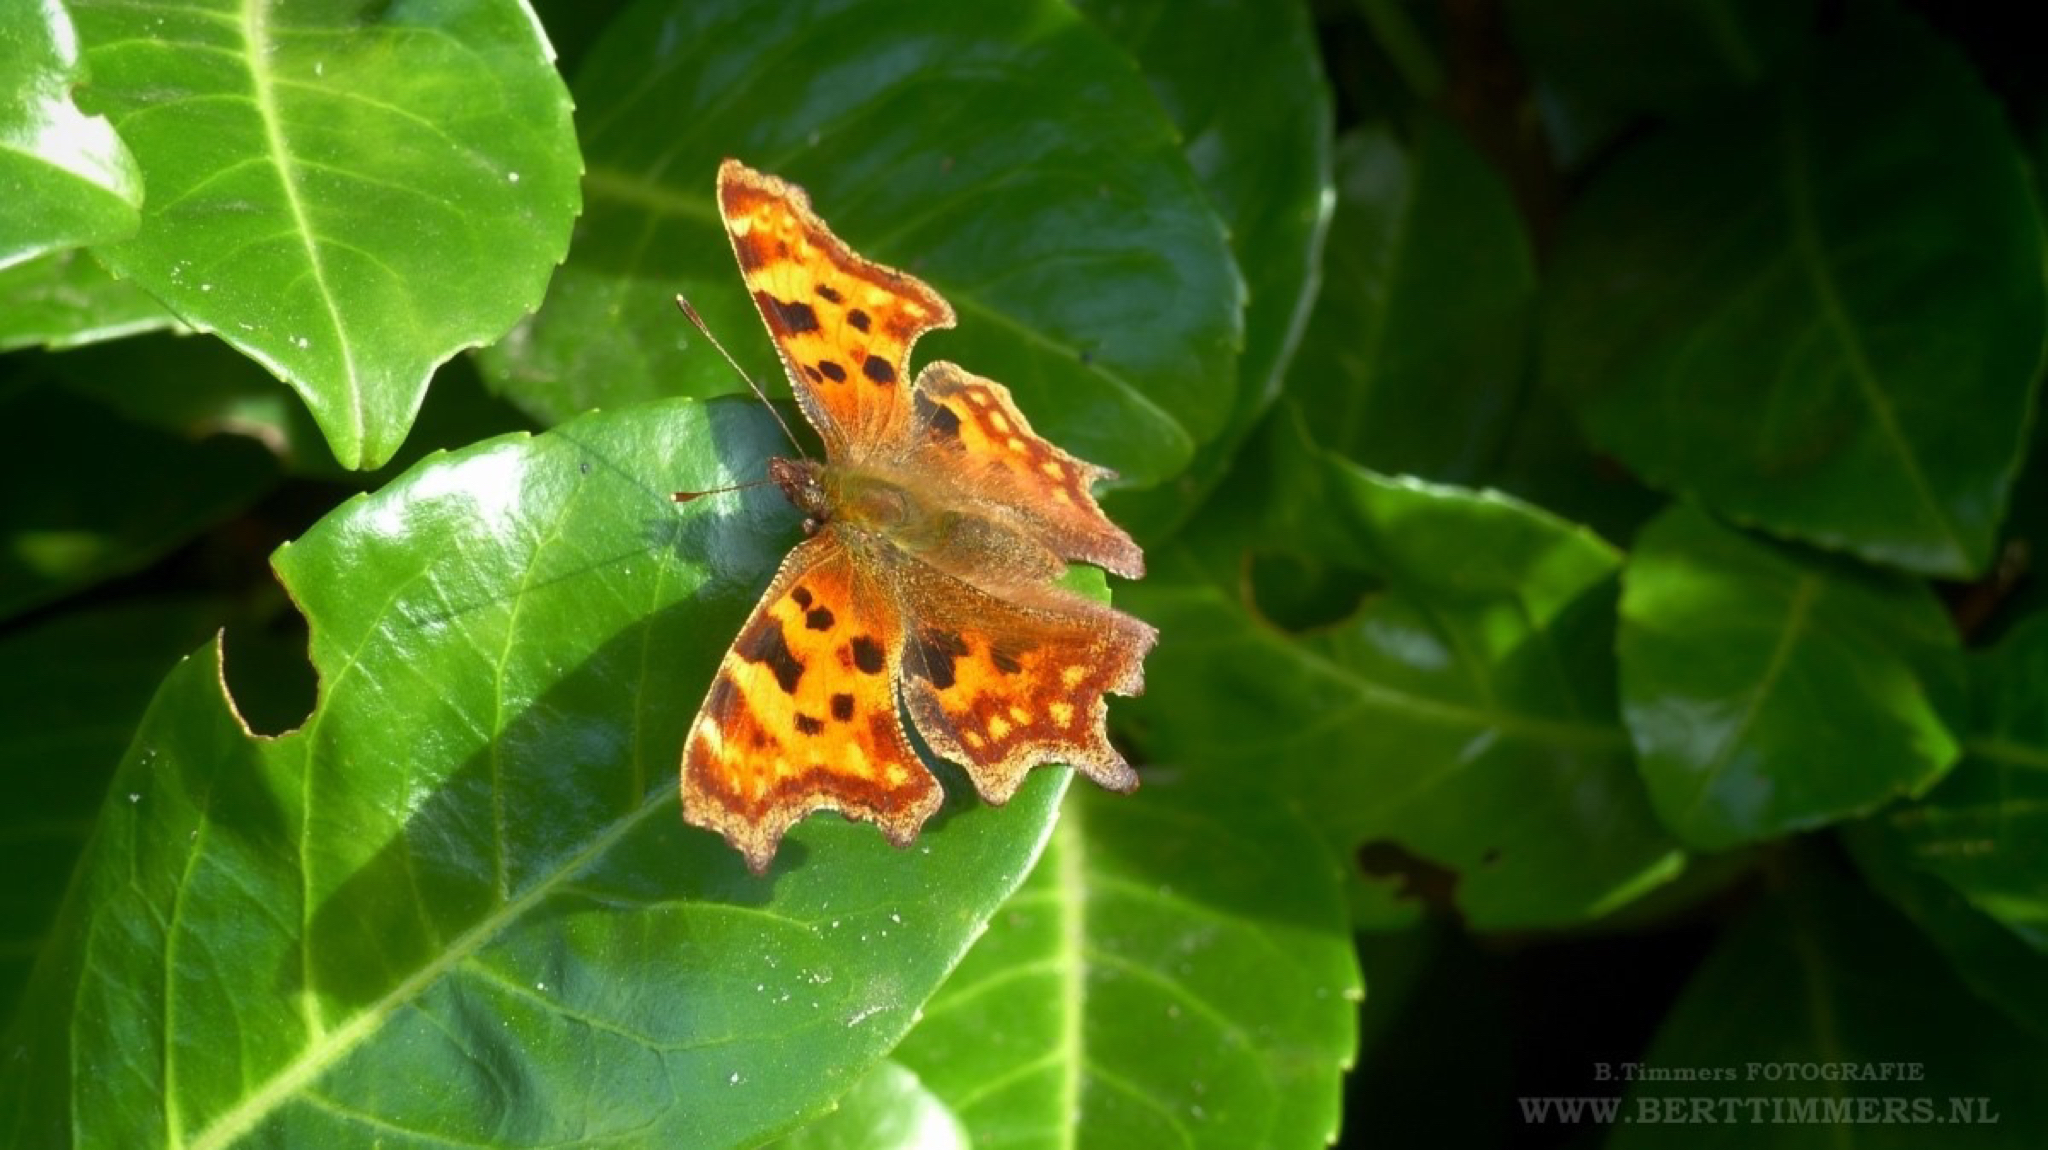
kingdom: Animalia
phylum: Arthropoda
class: Insecta
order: Lepidoptera
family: Nymphalidae
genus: Polygonia
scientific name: Polygonia c-album
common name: Comma
